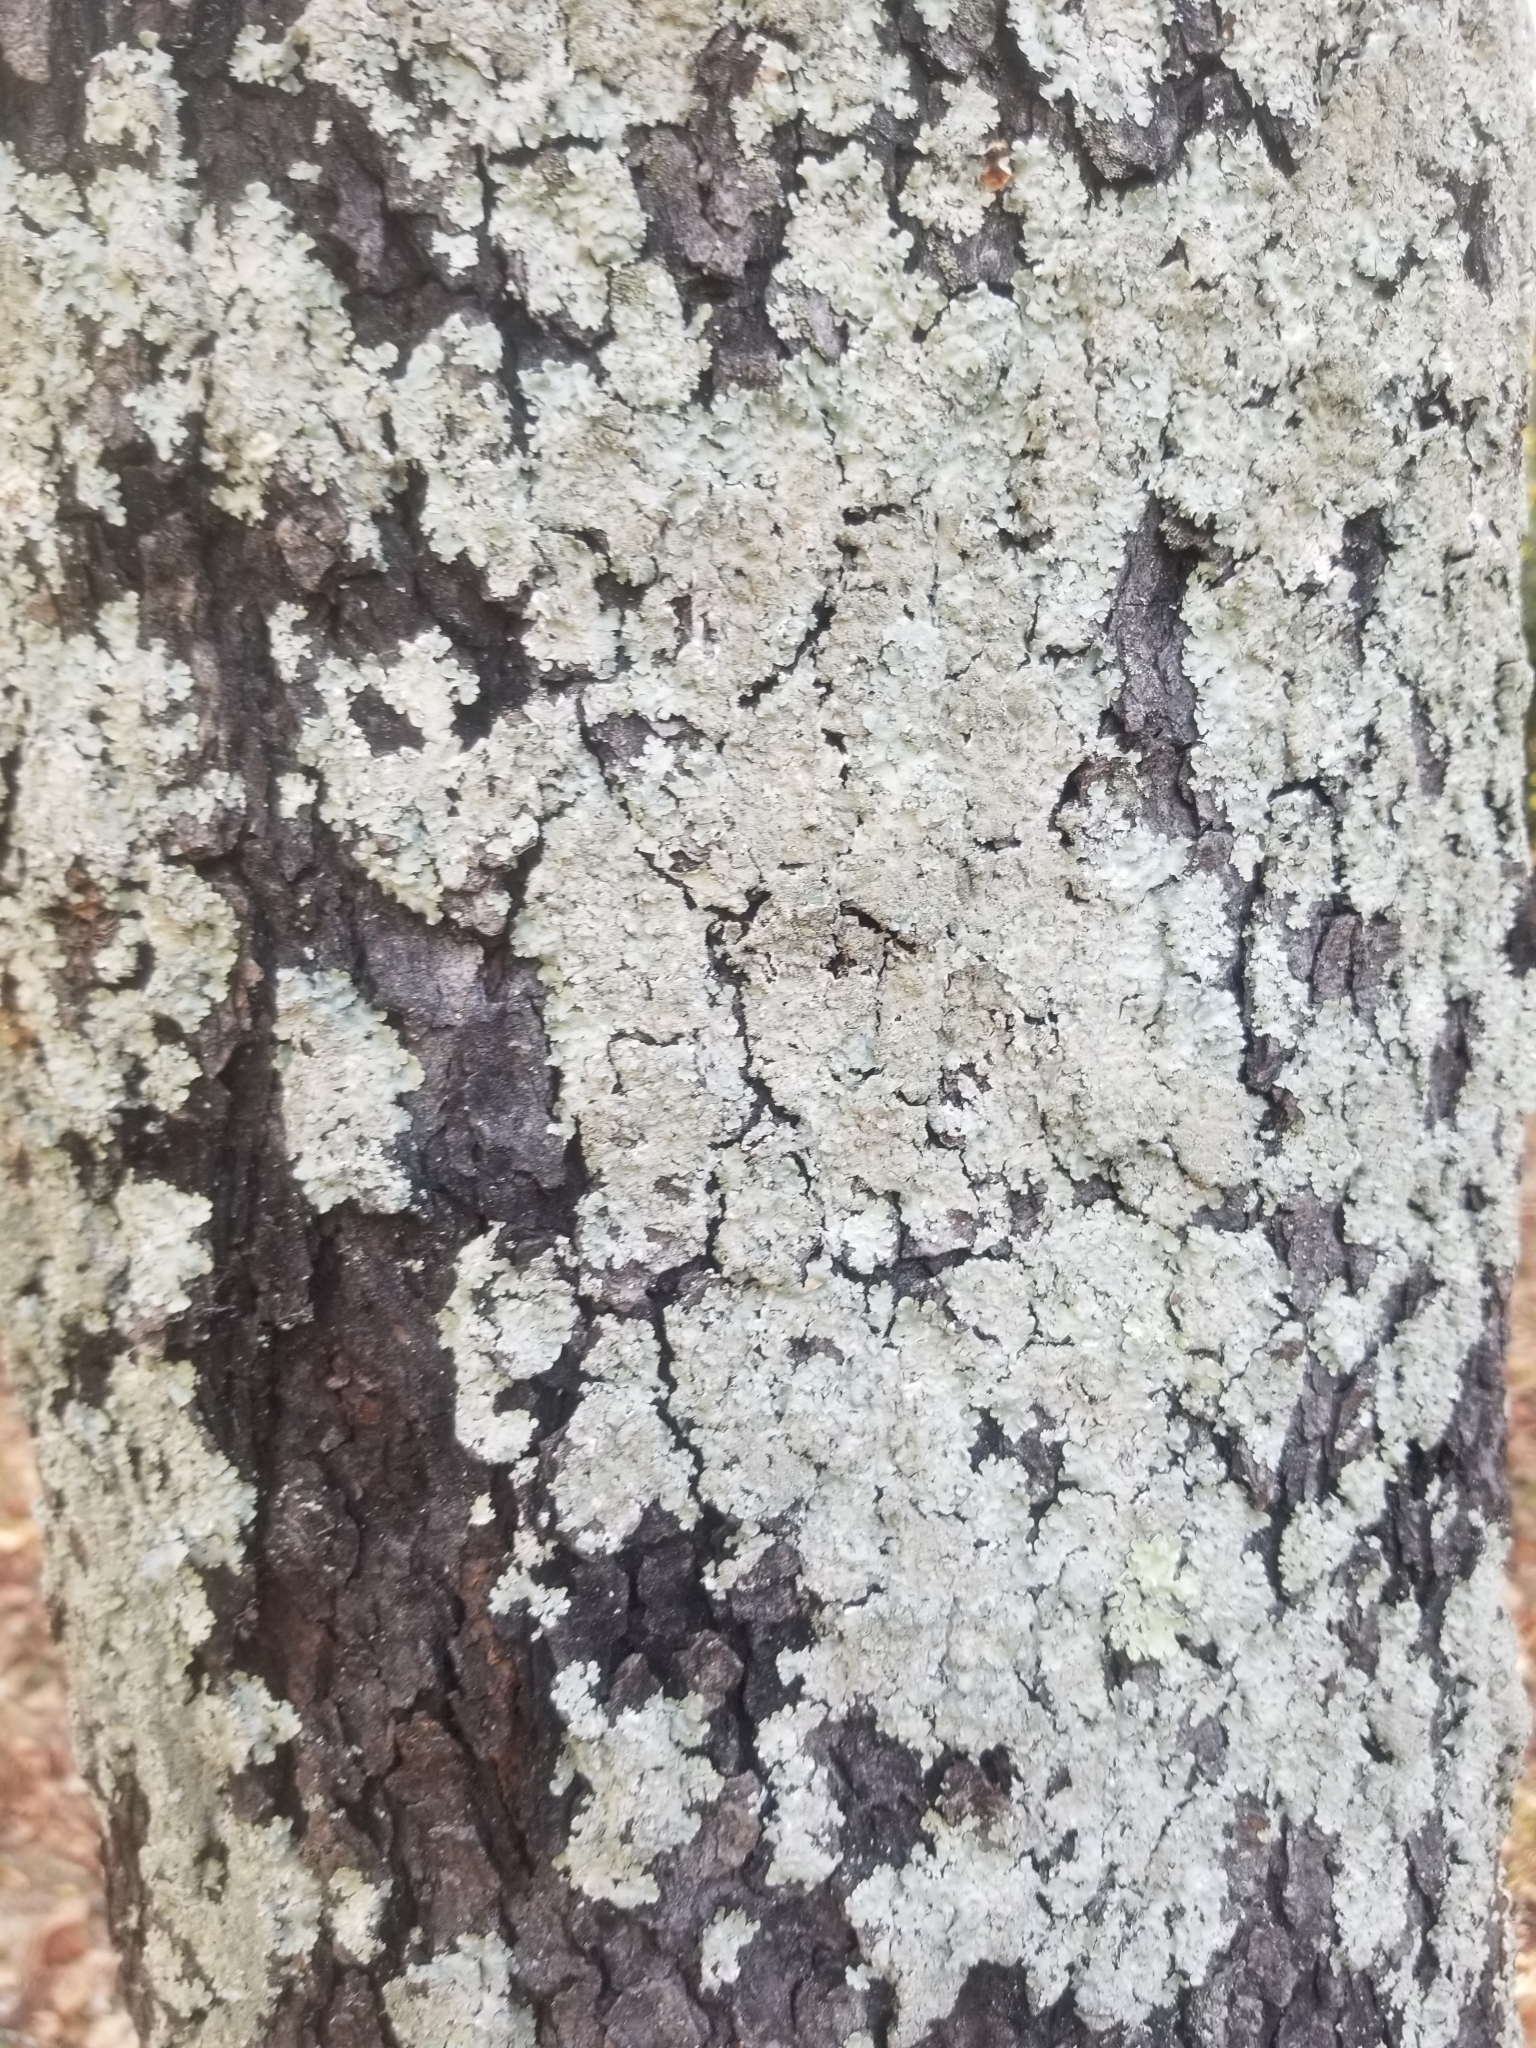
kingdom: Fungi
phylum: Ascomycota
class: Lecanoromycetes
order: Lecanorales
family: Parmeliaceae
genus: Flavoparmelia
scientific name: Flavoparmelia caperata
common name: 40-mile per hour lichen
